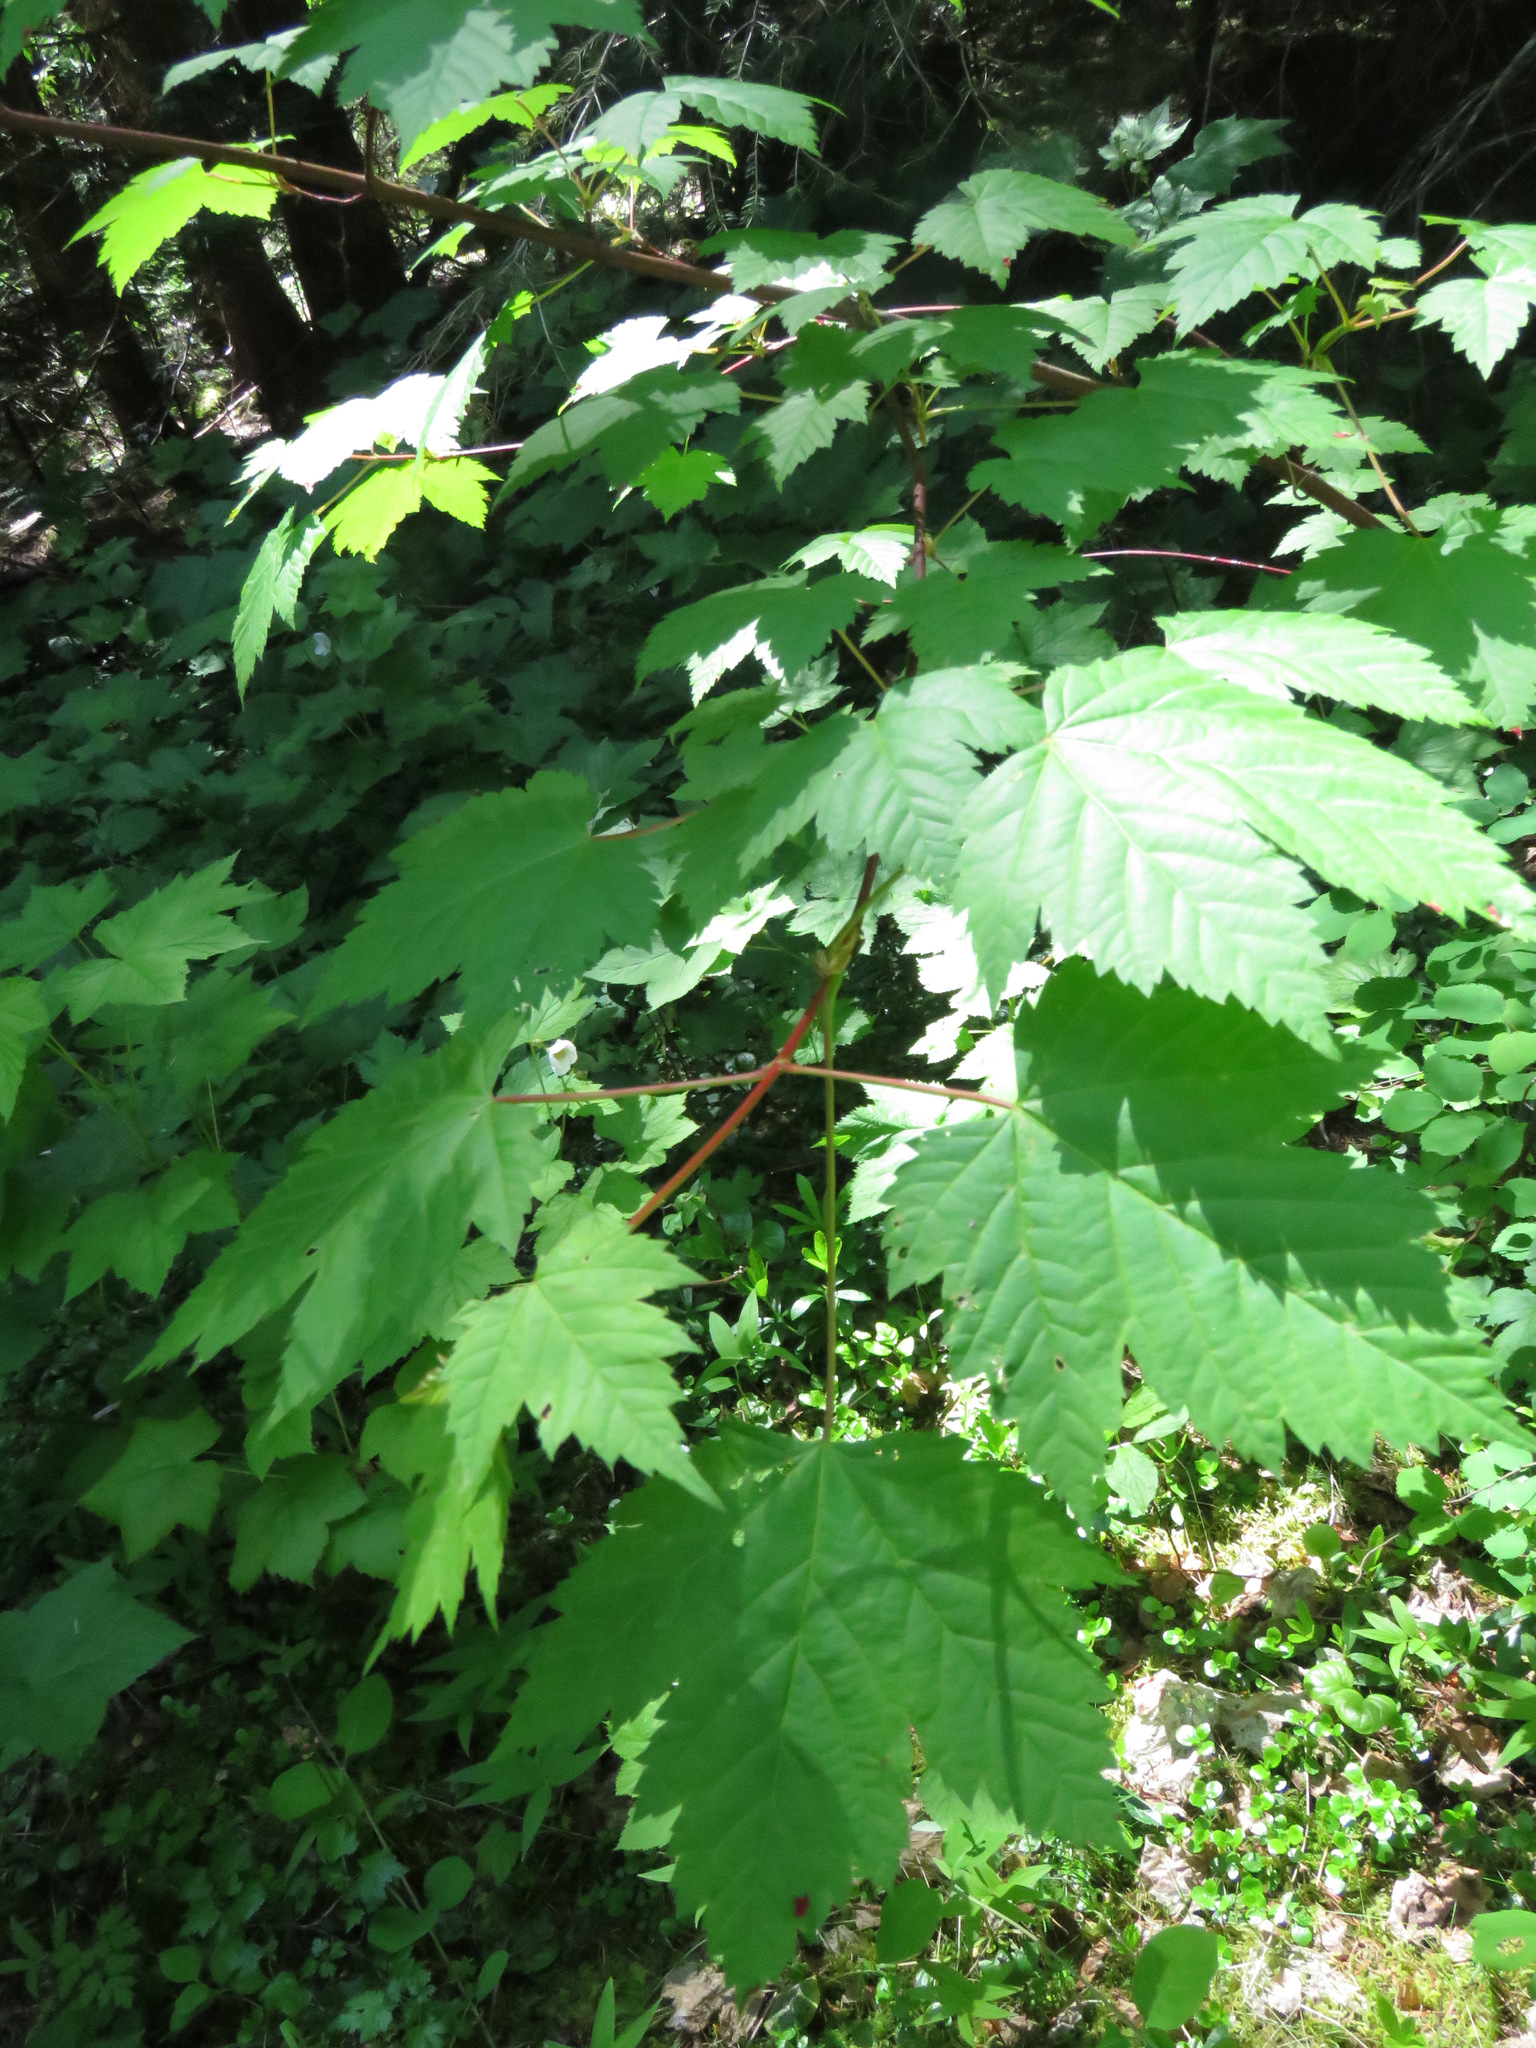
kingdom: Plantae
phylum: Tracheophyta
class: Magnoliopsida
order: Sapindales
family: Sapindaceae
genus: Acer
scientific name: Acer glabrum
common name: Rocky mountain maple
